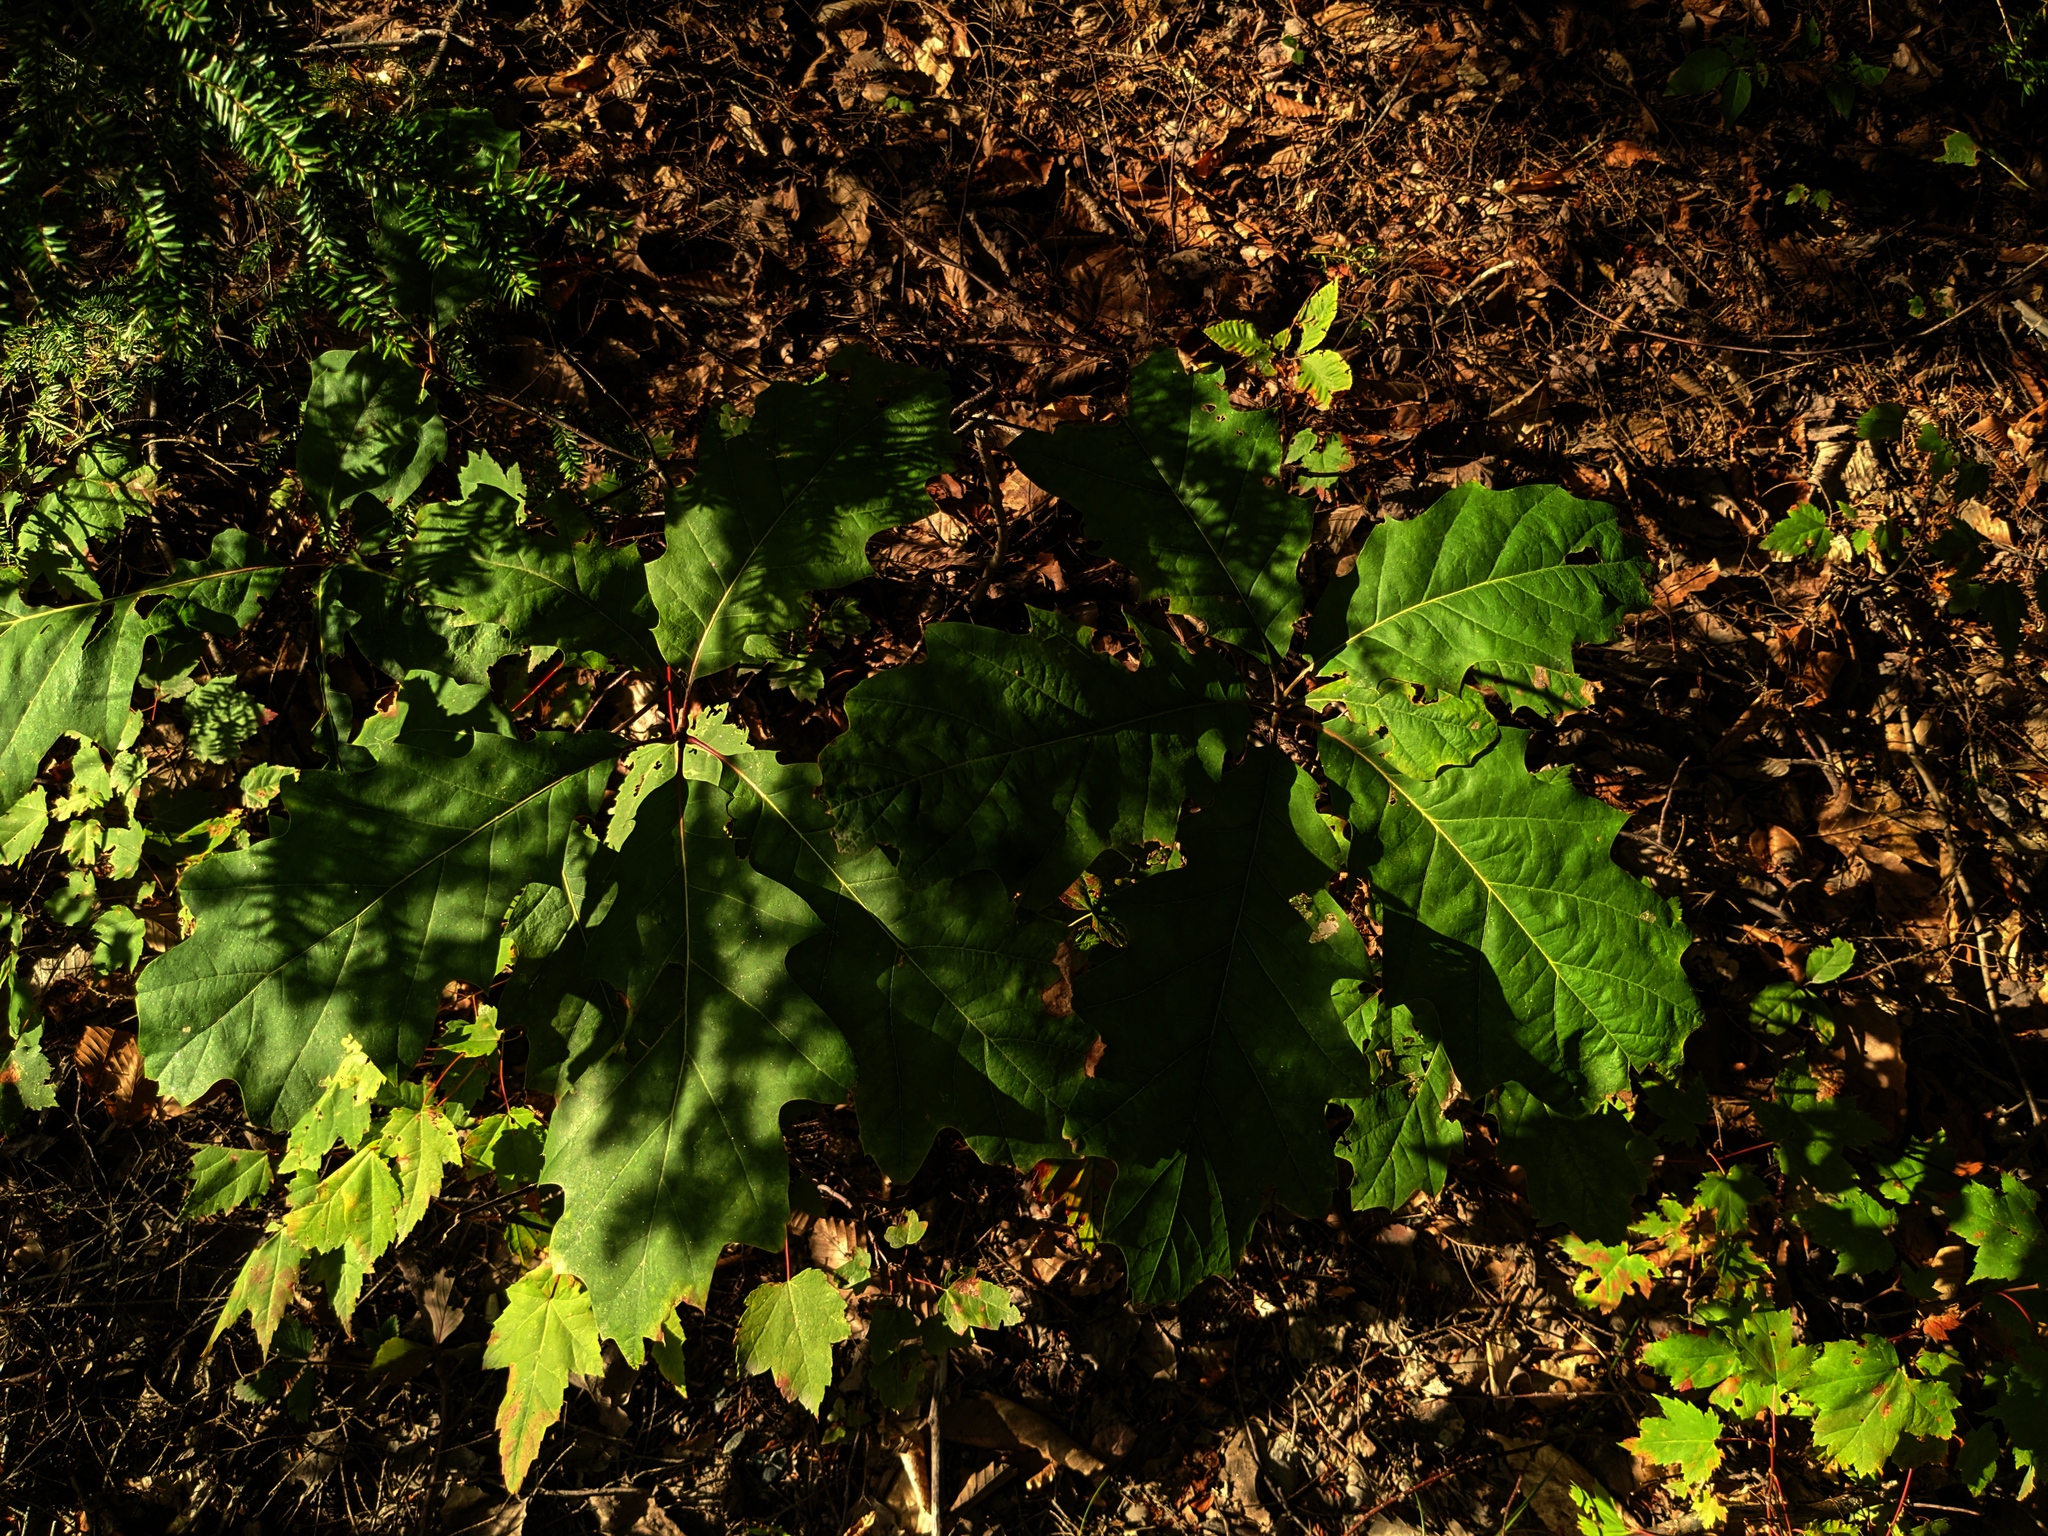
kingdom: Plantae
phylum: Tracheophyta
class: Magnoliopsida
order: Fagales
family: Fagaceae
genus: Quercus
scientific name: Quercus rubra
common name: Red oak
